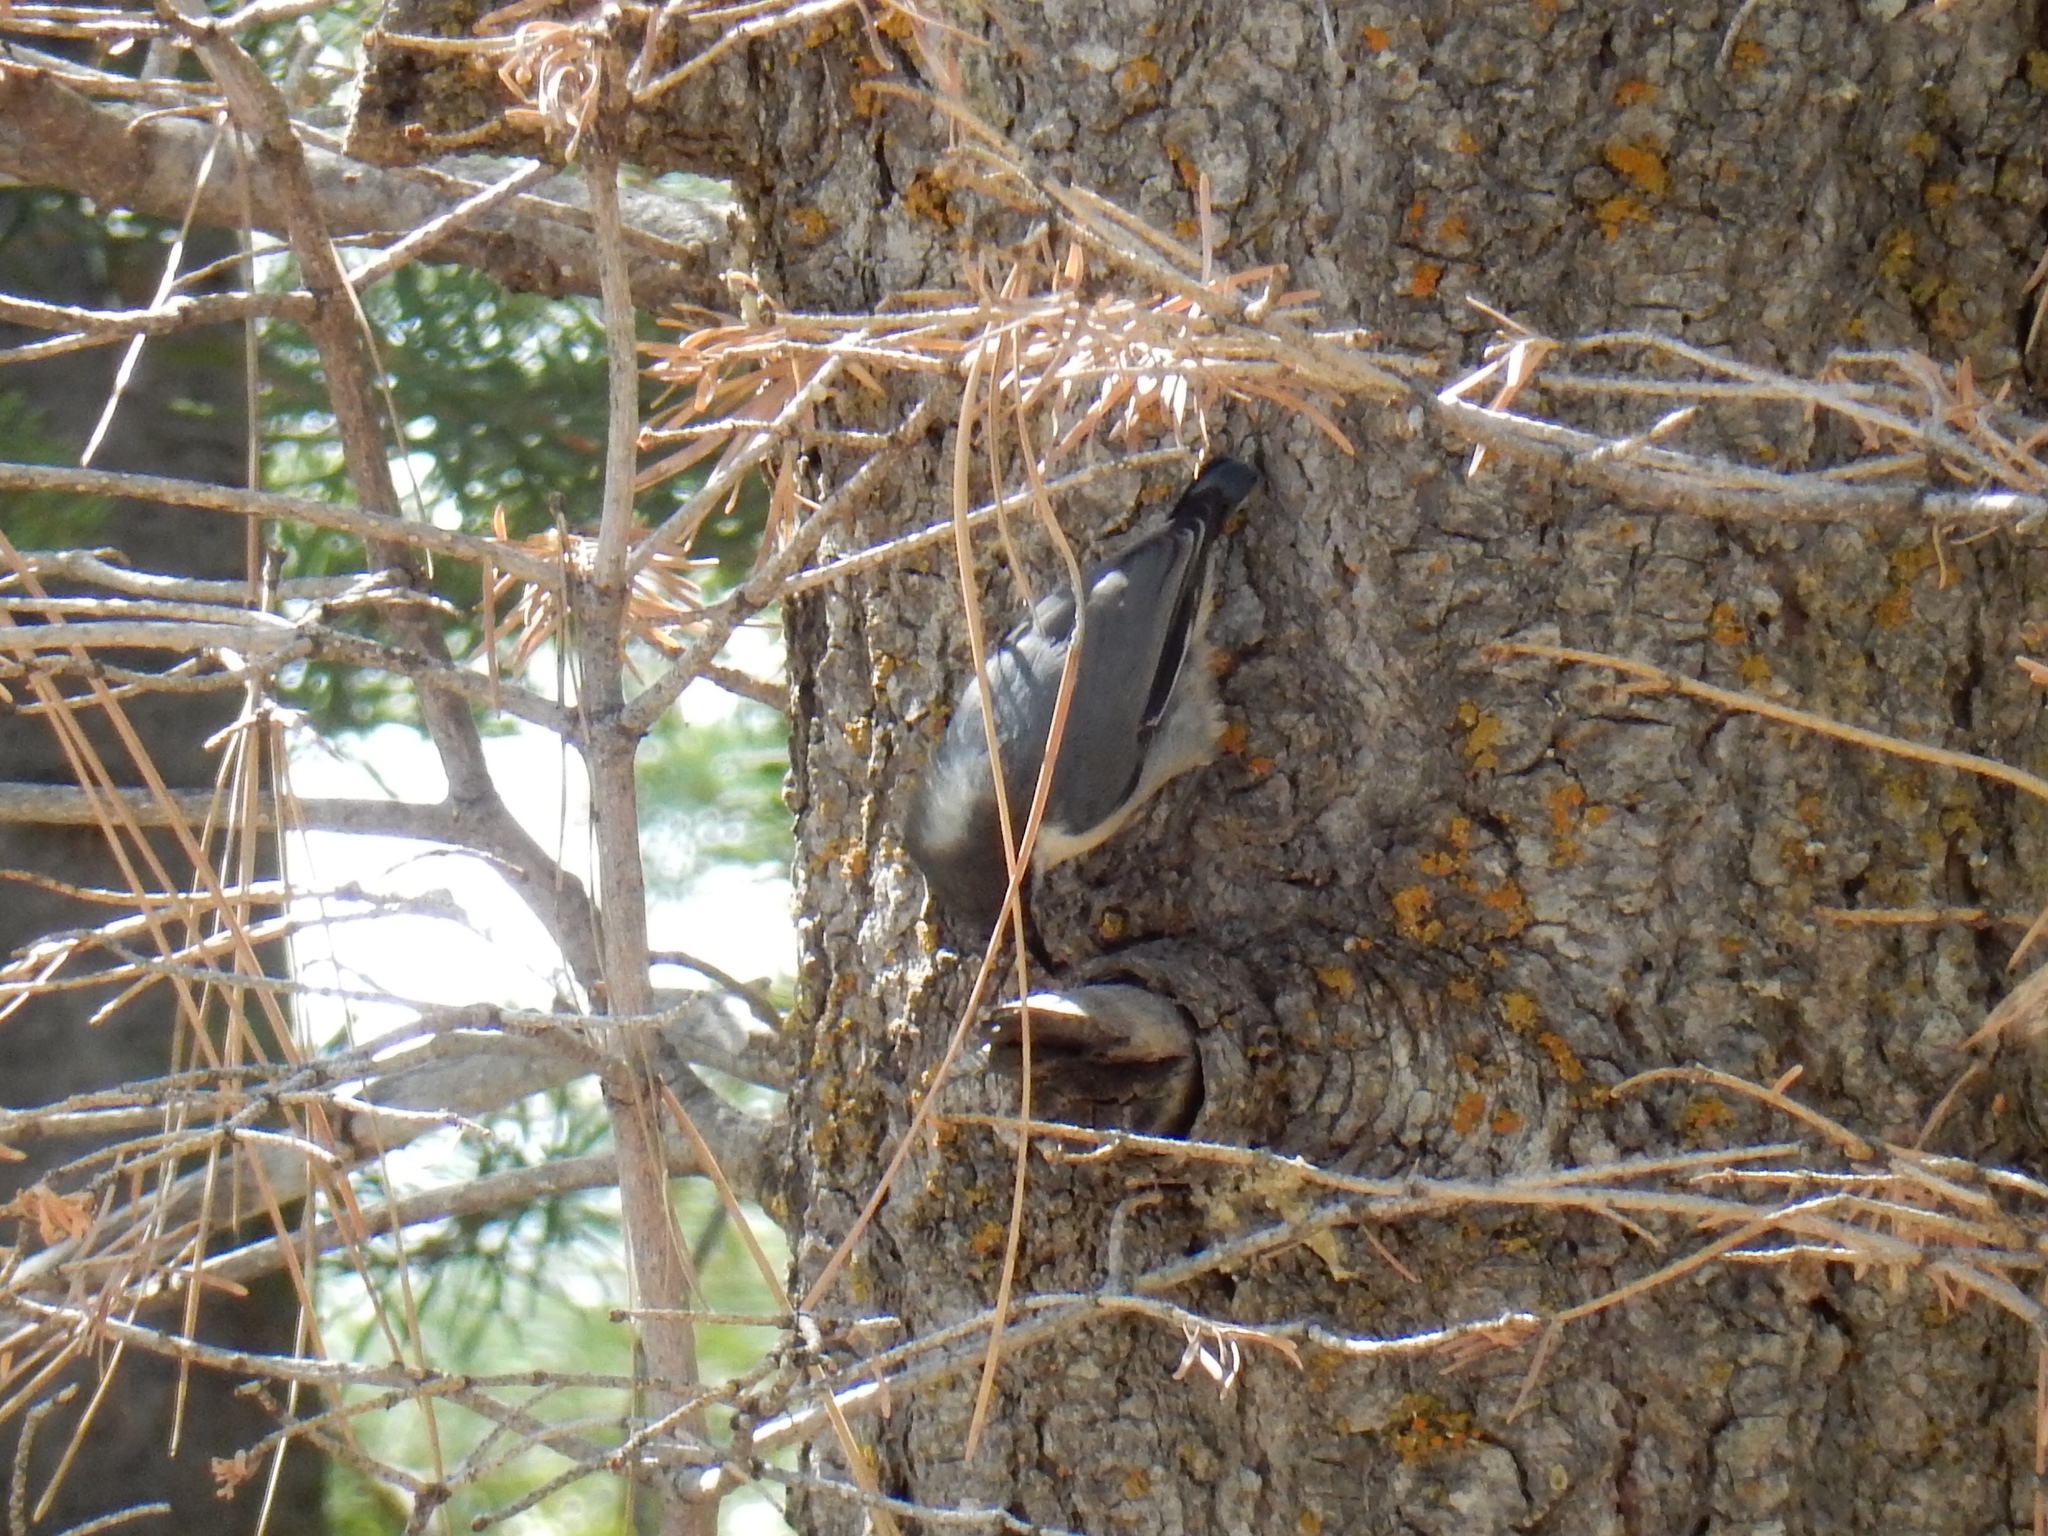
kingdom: Animalia
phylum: Chordata
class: Aves
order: Passeriformes
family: Sittidae
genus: Sitta
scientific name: Sitta pygmaea
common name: Pygmy nuthatch
